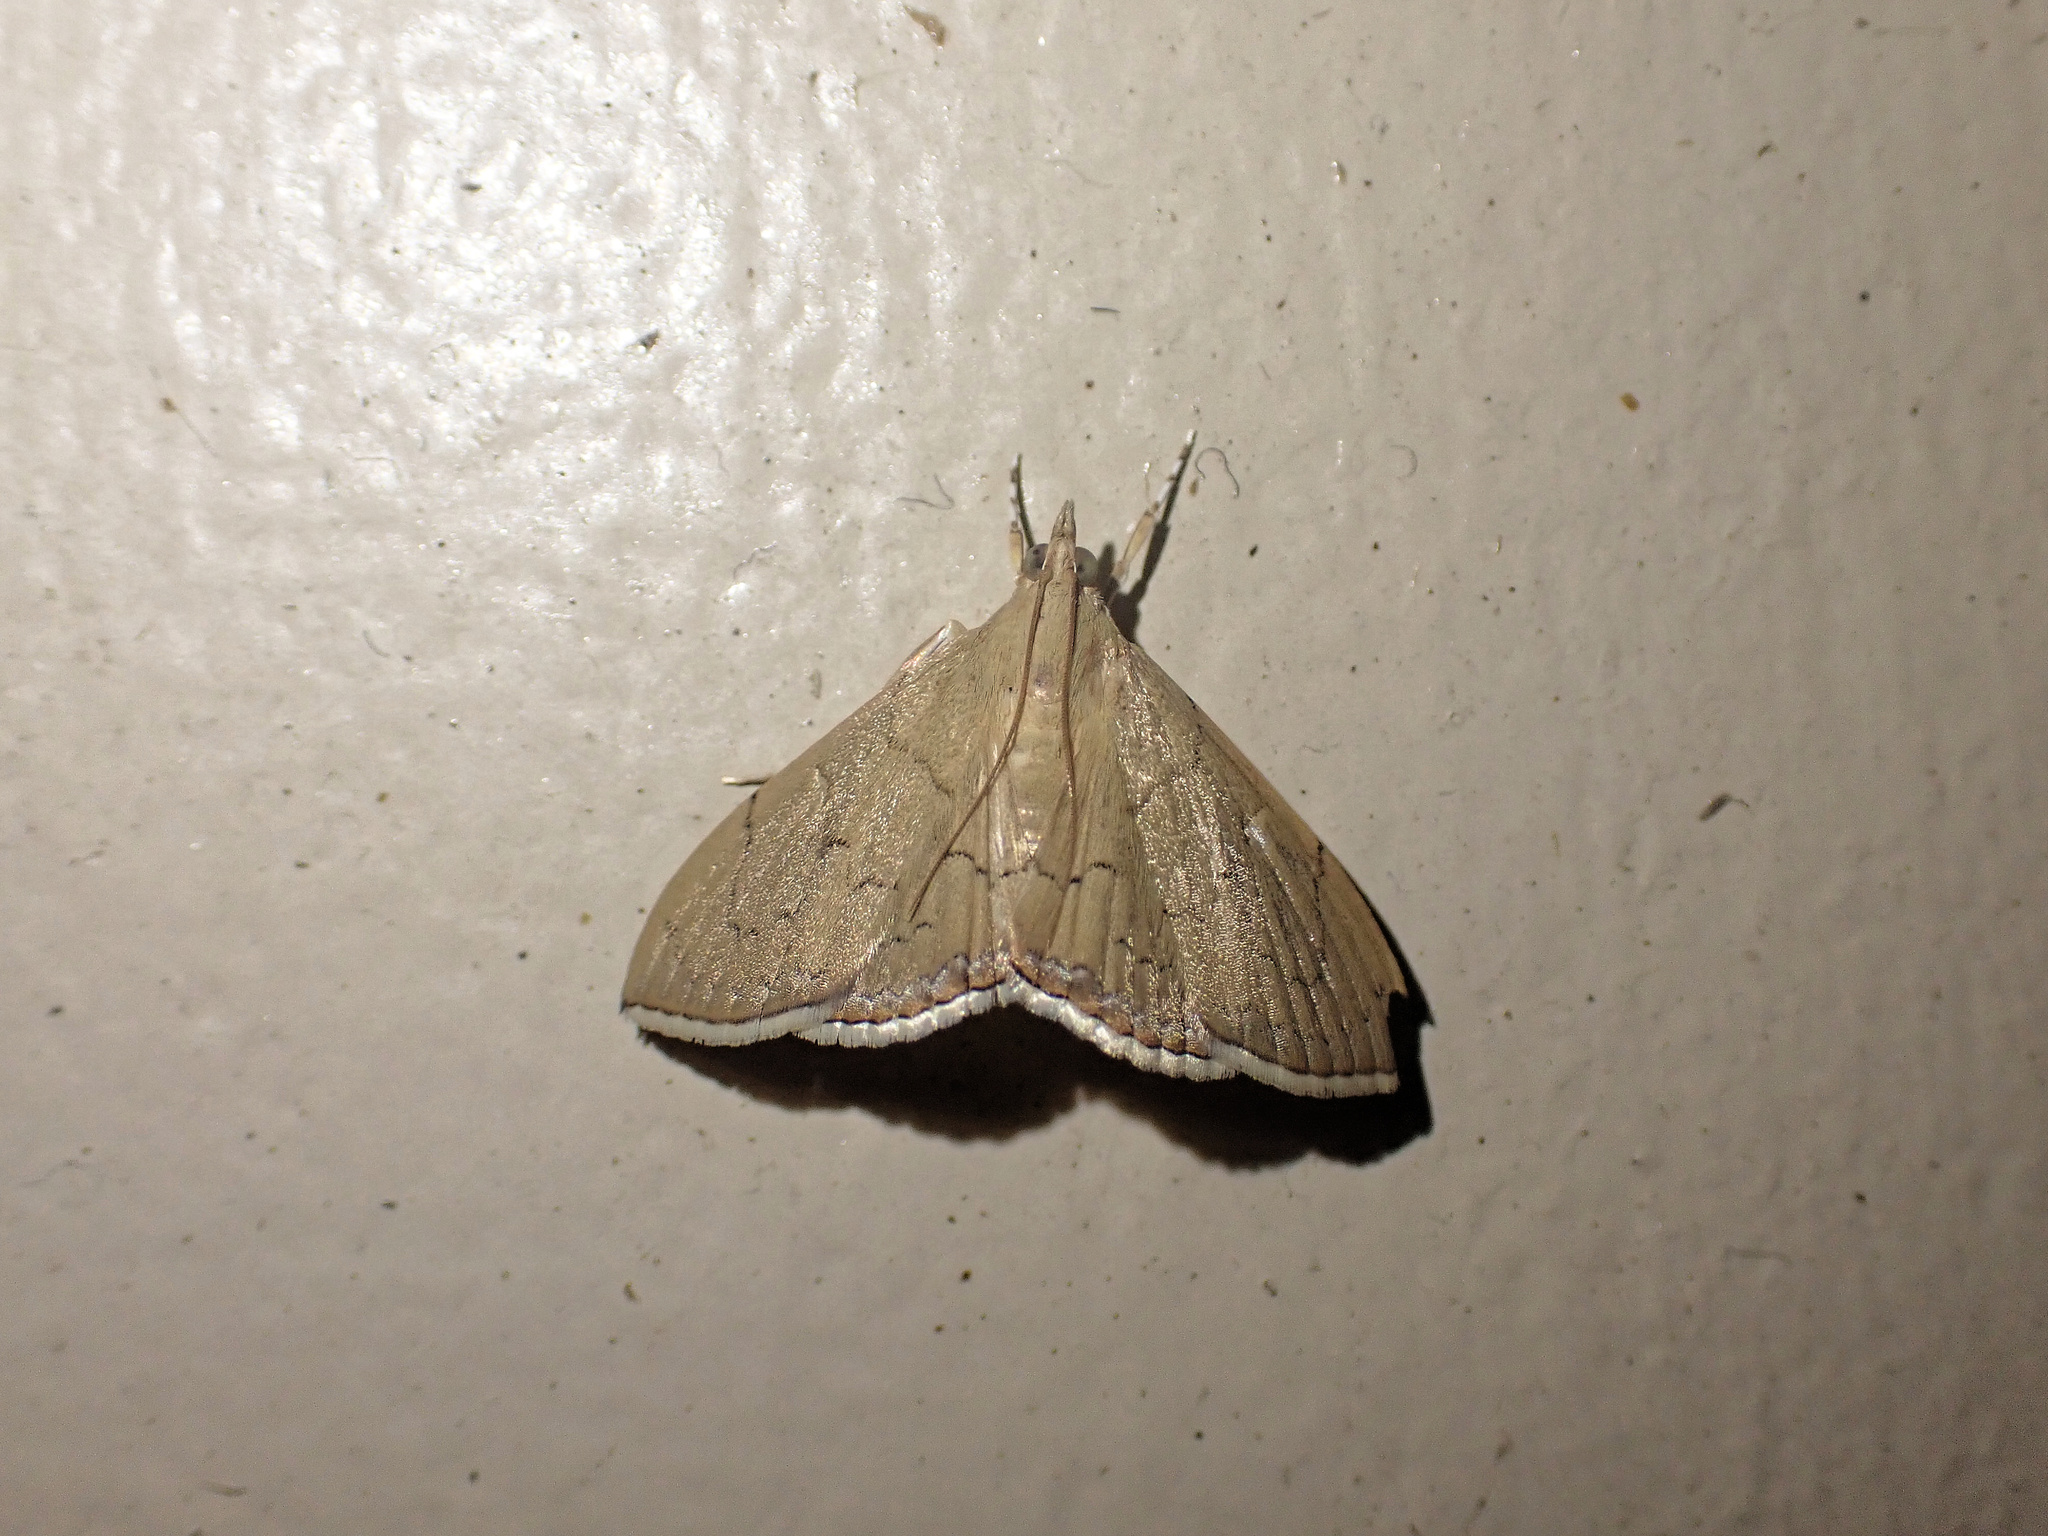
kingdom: Animalia
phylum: Arthropoda
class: Insecta
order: Lepidoptera
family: Crambidae
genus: Hyalobathra
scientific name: Hyalobathra crenulata
